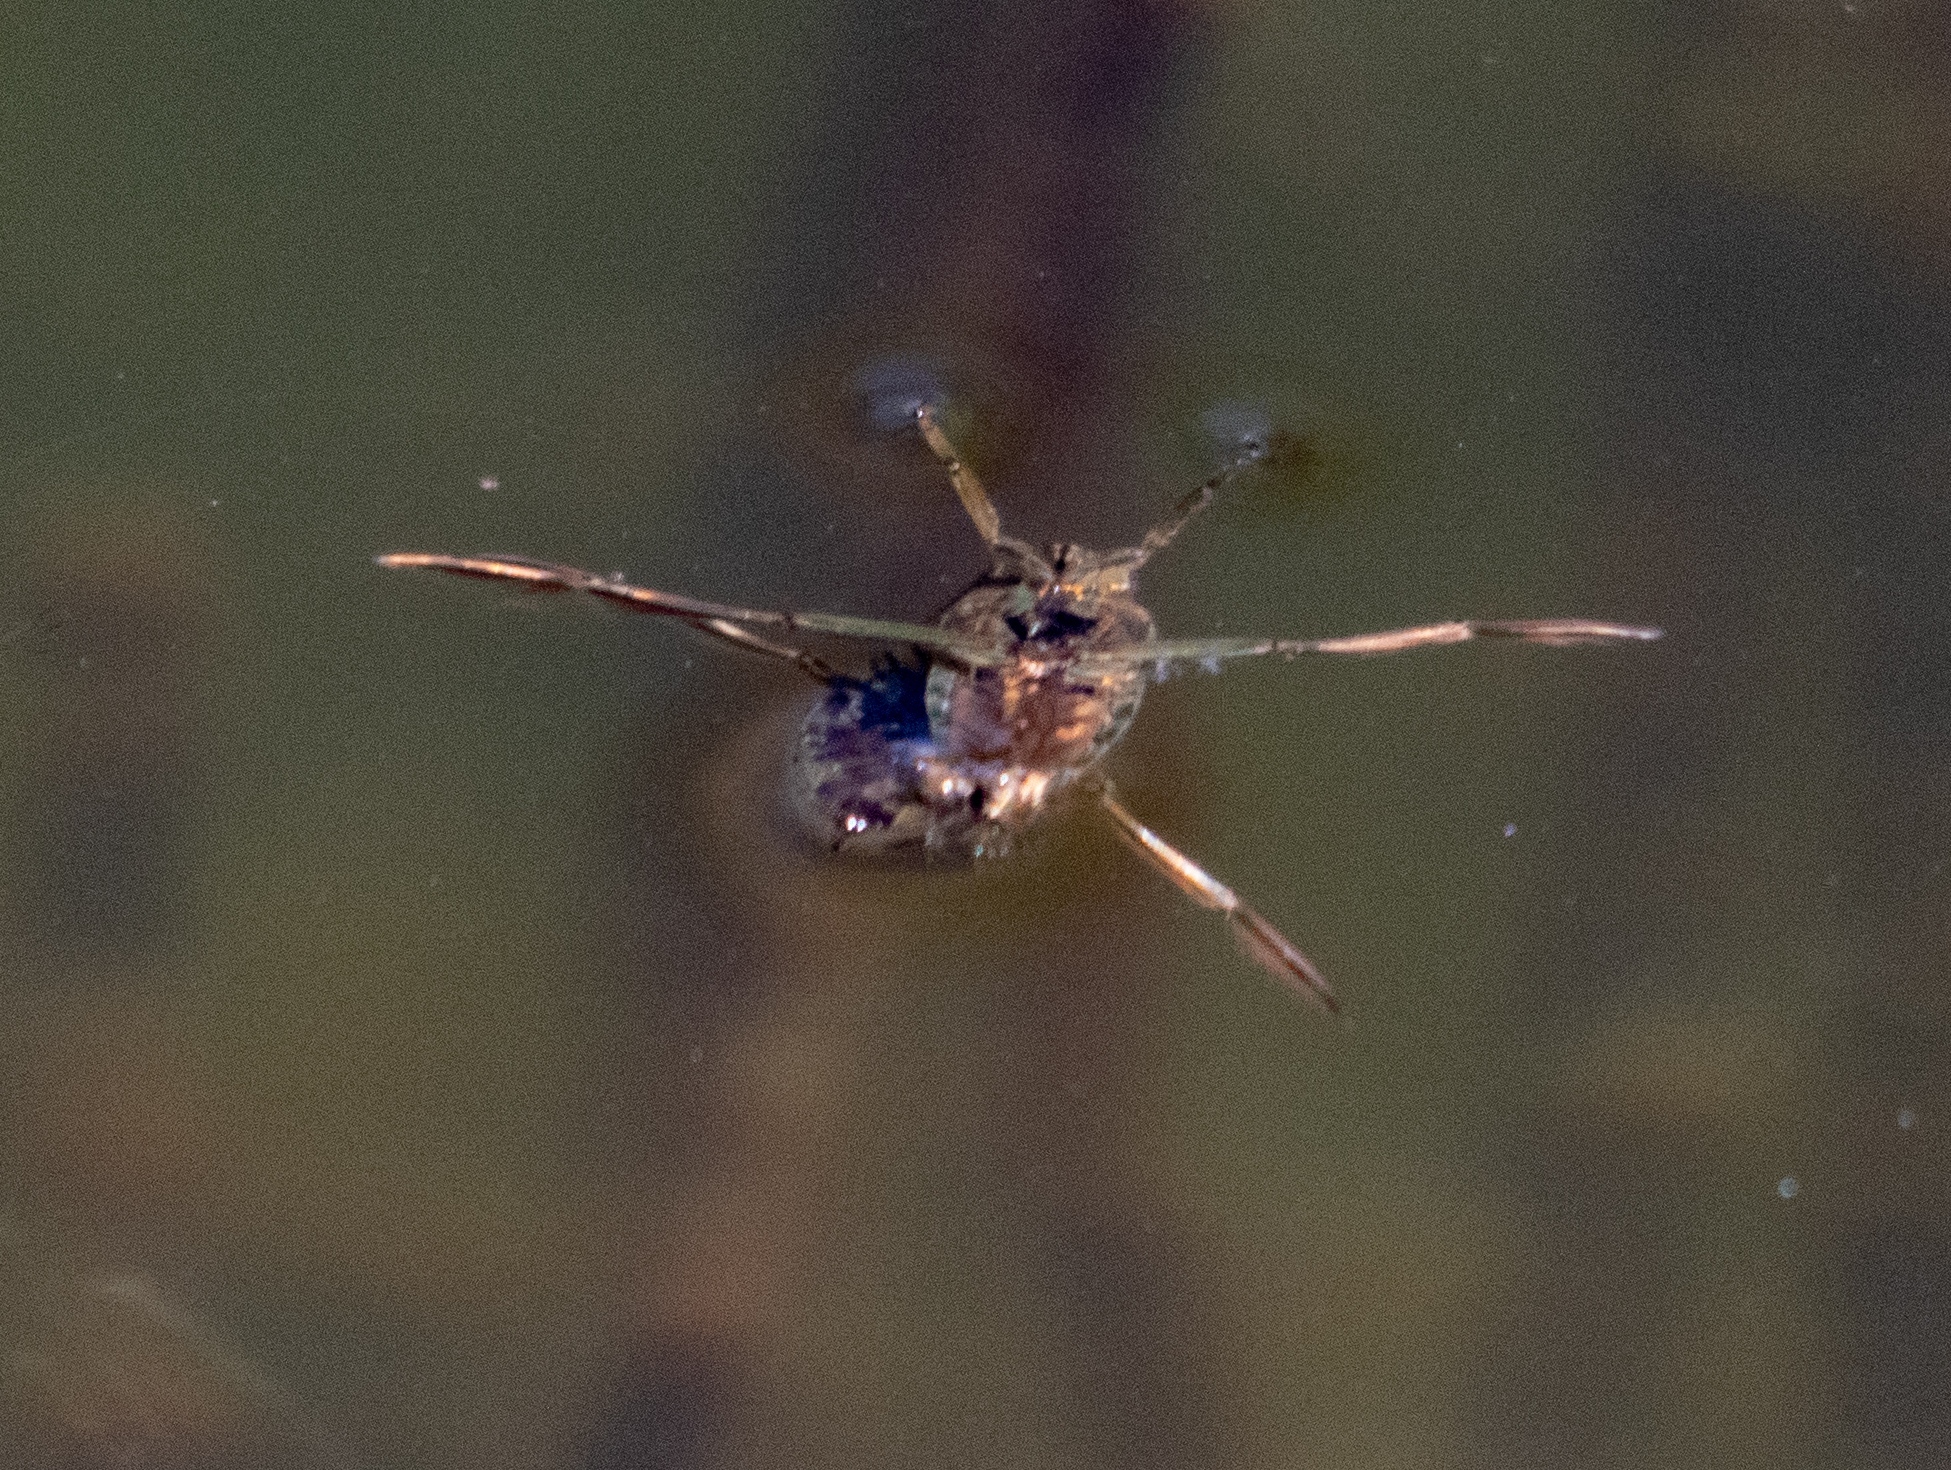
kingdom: Animalia
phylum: Arthropoda
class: Insecta
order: Hemiptera
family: Notonectidae
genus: Notonecta
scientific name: Notonecta
